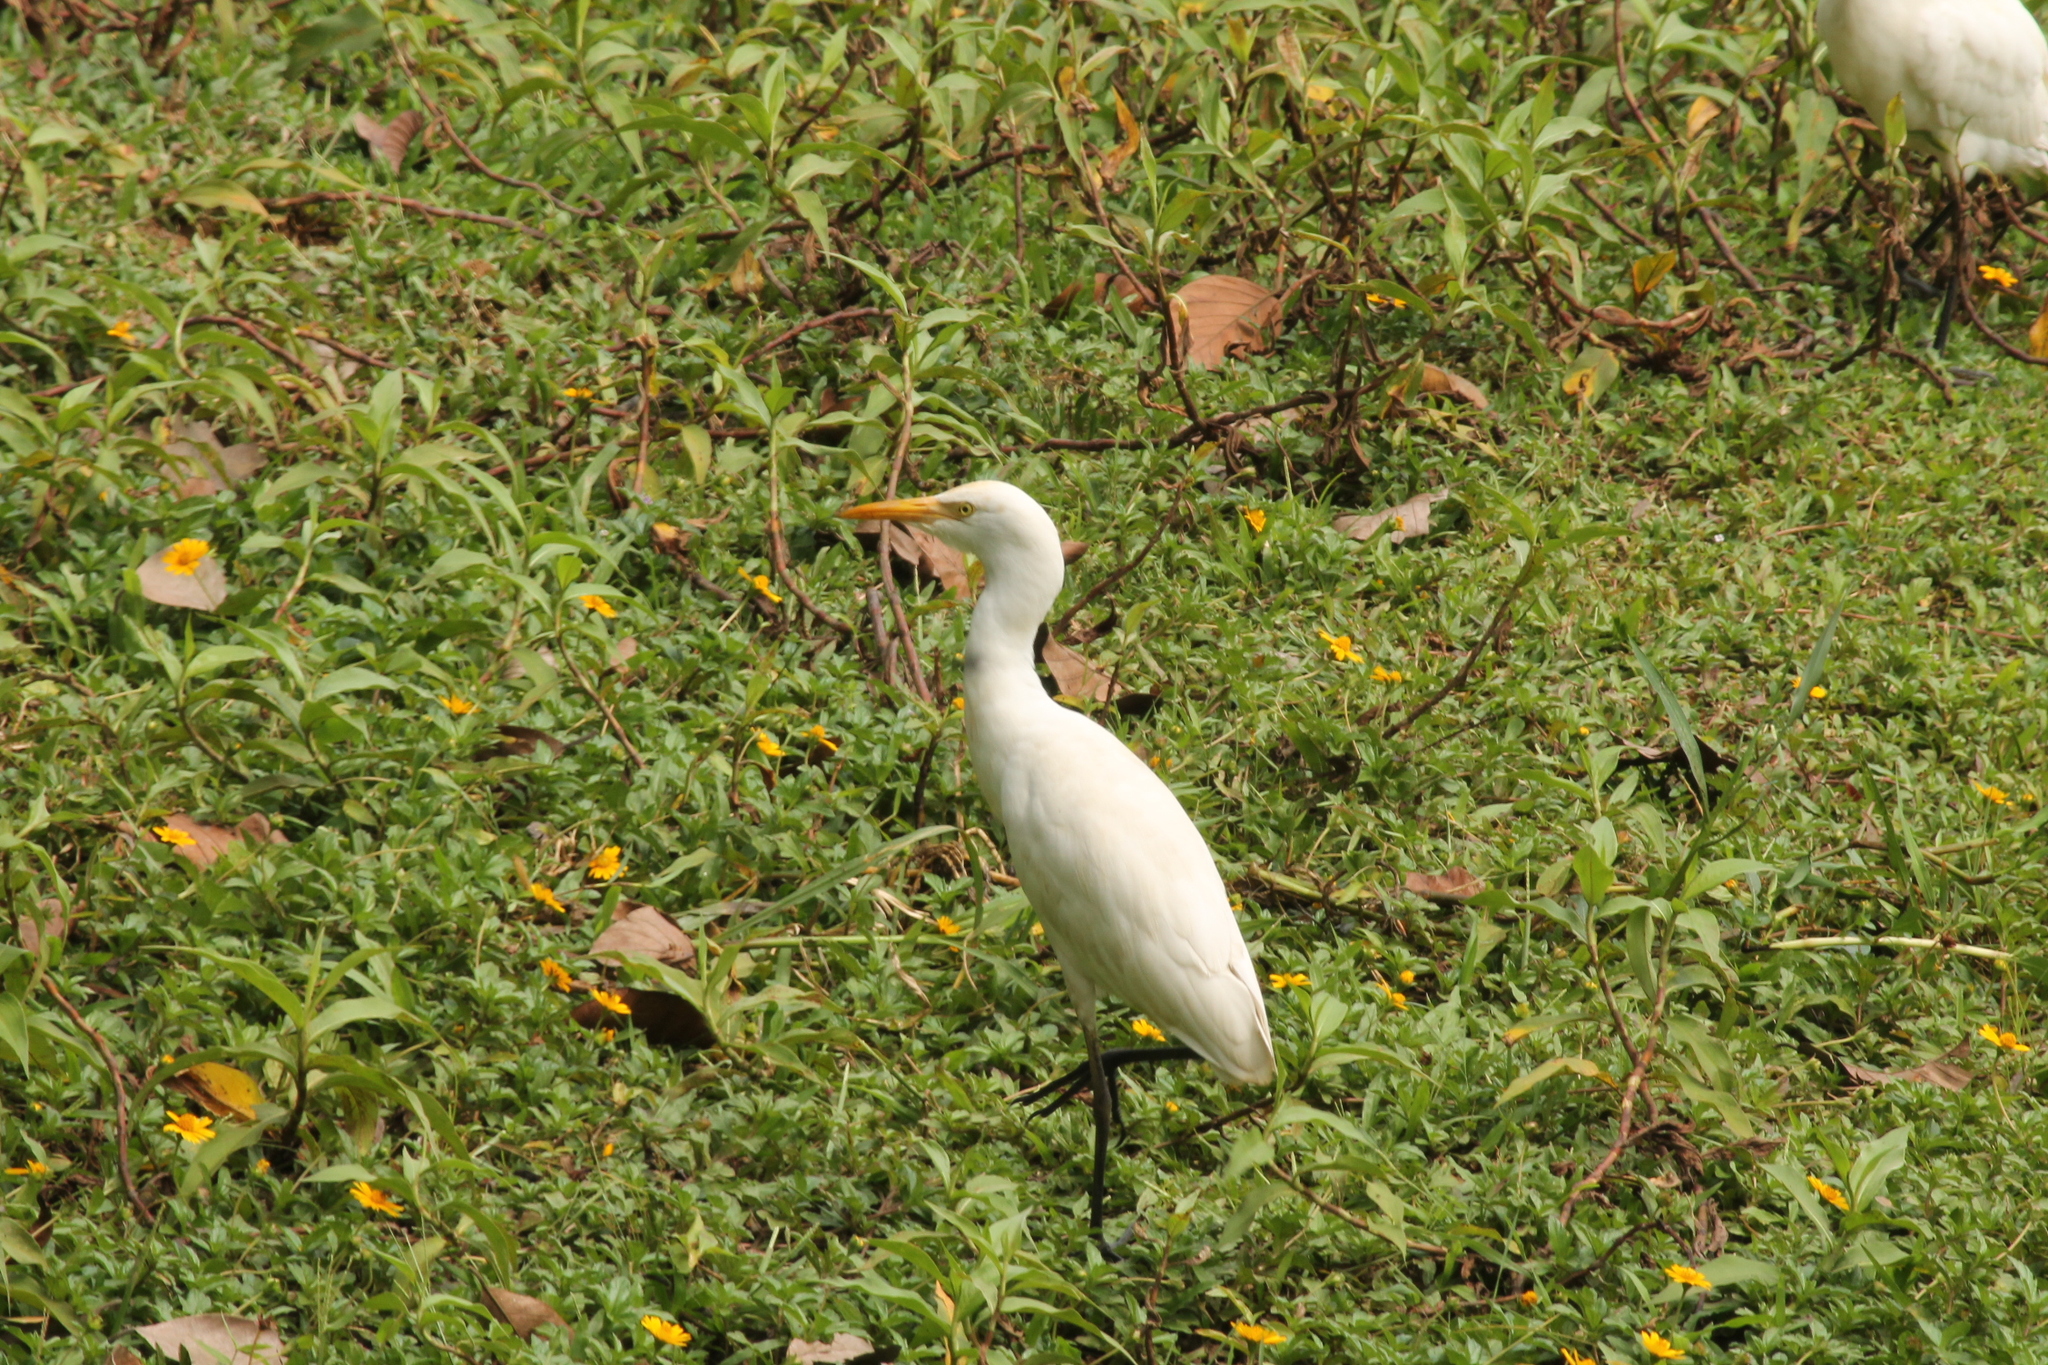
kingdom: Animalia
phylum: Chordata
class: Aves
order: Pelecaniformes
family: Ardeidae
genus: Bubulcus
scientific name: Bubulcus coromandus
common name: Eastern cattle egret
